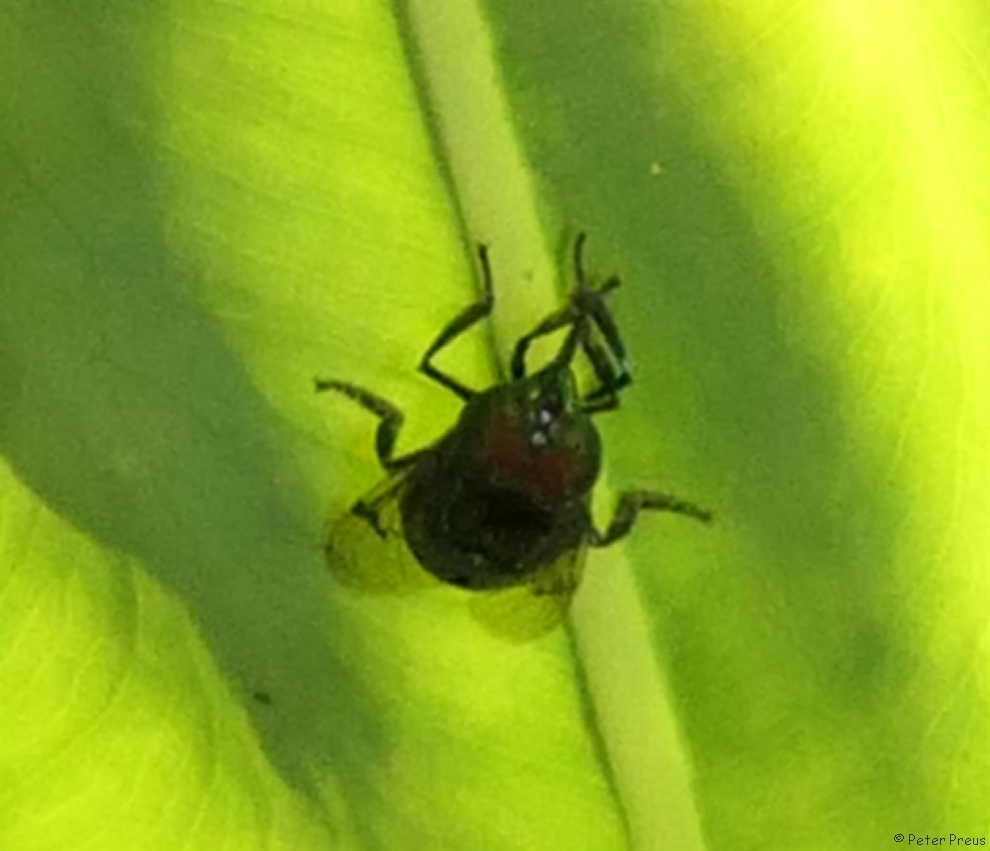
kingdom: Animalia
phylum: Arthropoda
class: Insecta
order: Diptera
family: Syrphidae
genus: Ornidia
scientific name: Ornidia obesa
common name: Syrphid fly
